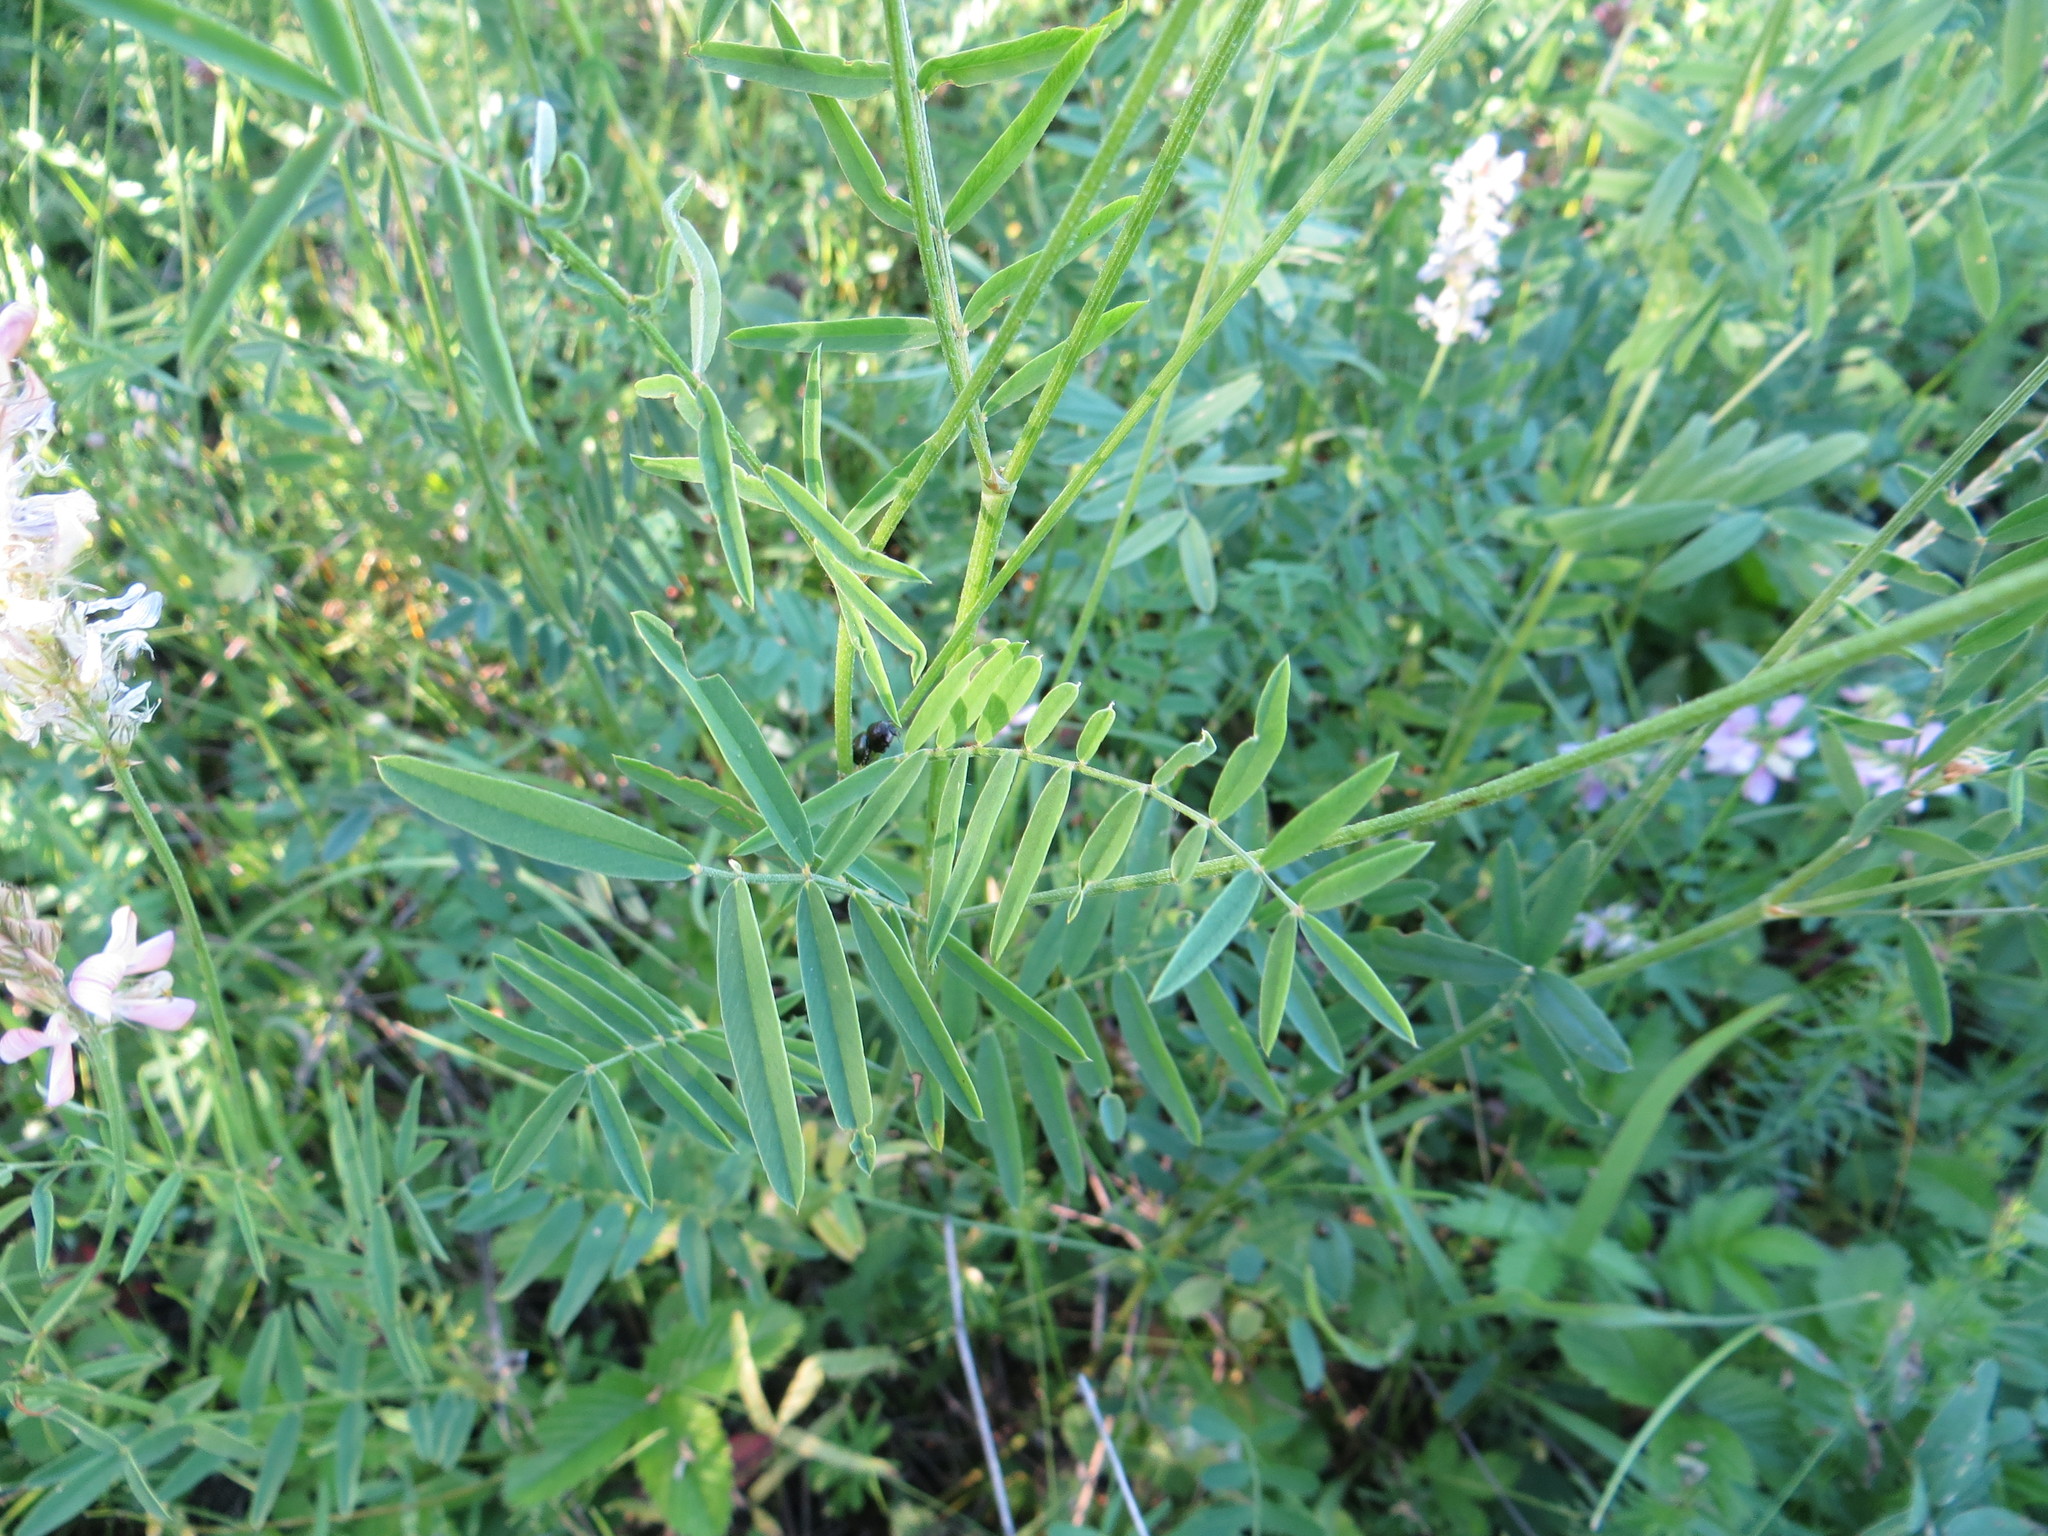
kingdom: Plantae
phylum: Tracheophyta
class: Magnoliopsida
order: Fabales
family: Fabaceae
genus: Onobrychis
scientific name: Onobrychis viciifolia
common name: Sainfoin
